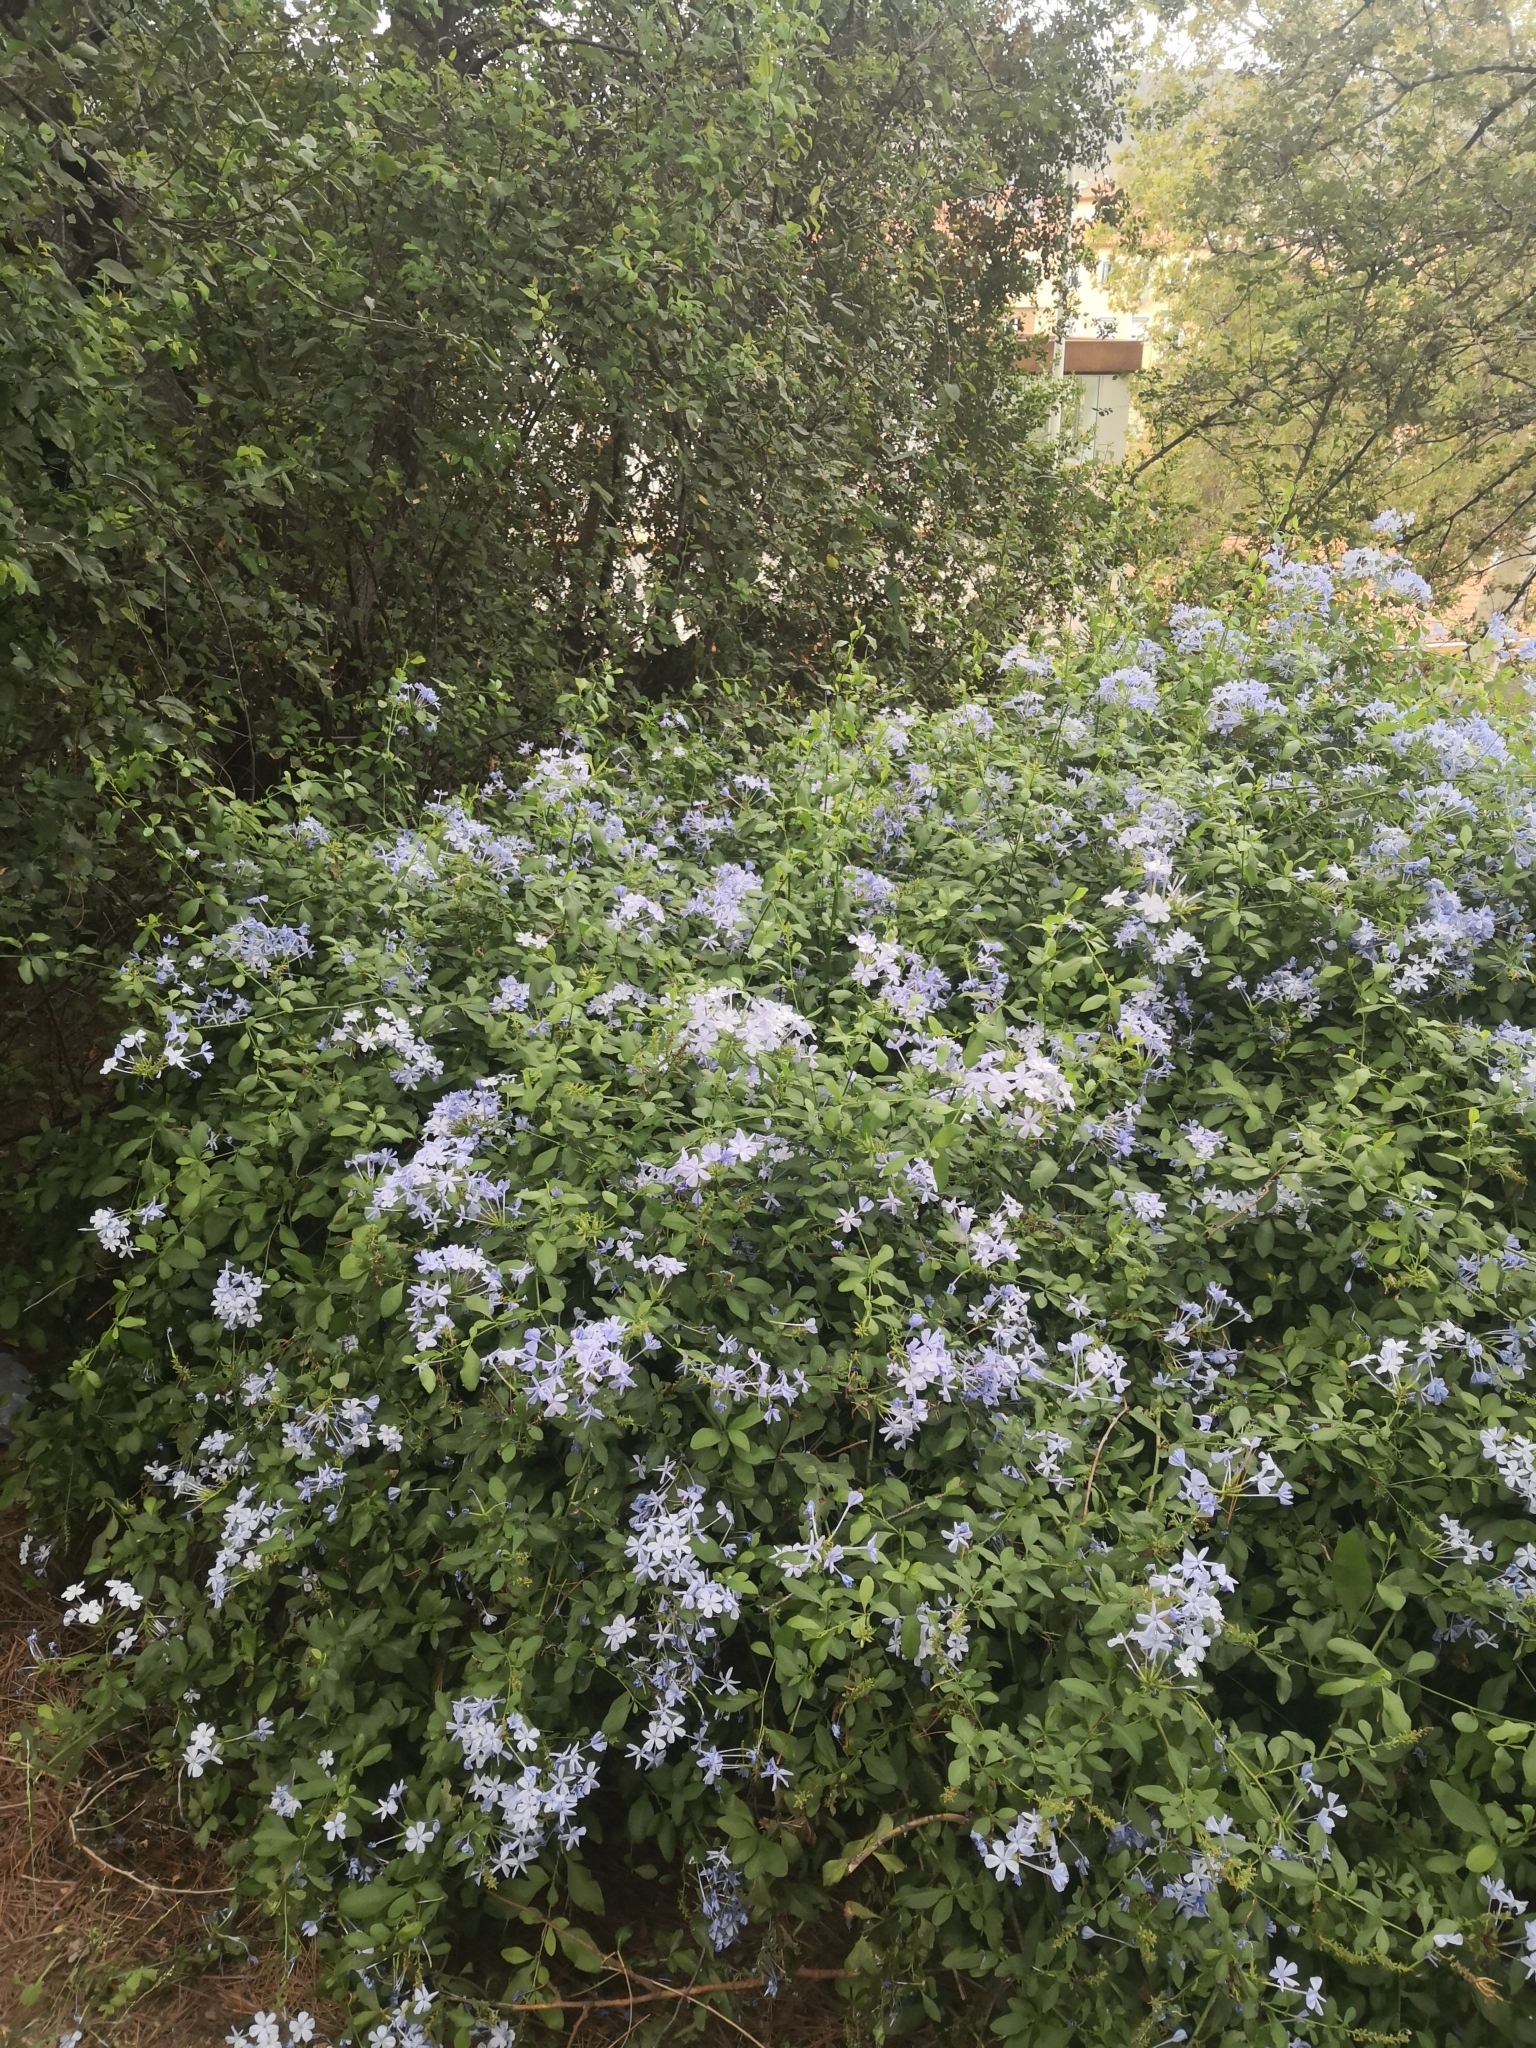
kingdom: Plantae
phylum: Tracheophyta
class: Magnoliopsida
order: Caryophyllales
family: Plumbaginaceae
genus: Plumbago
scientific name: Plumbago auriculata
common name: Cape leadwort
